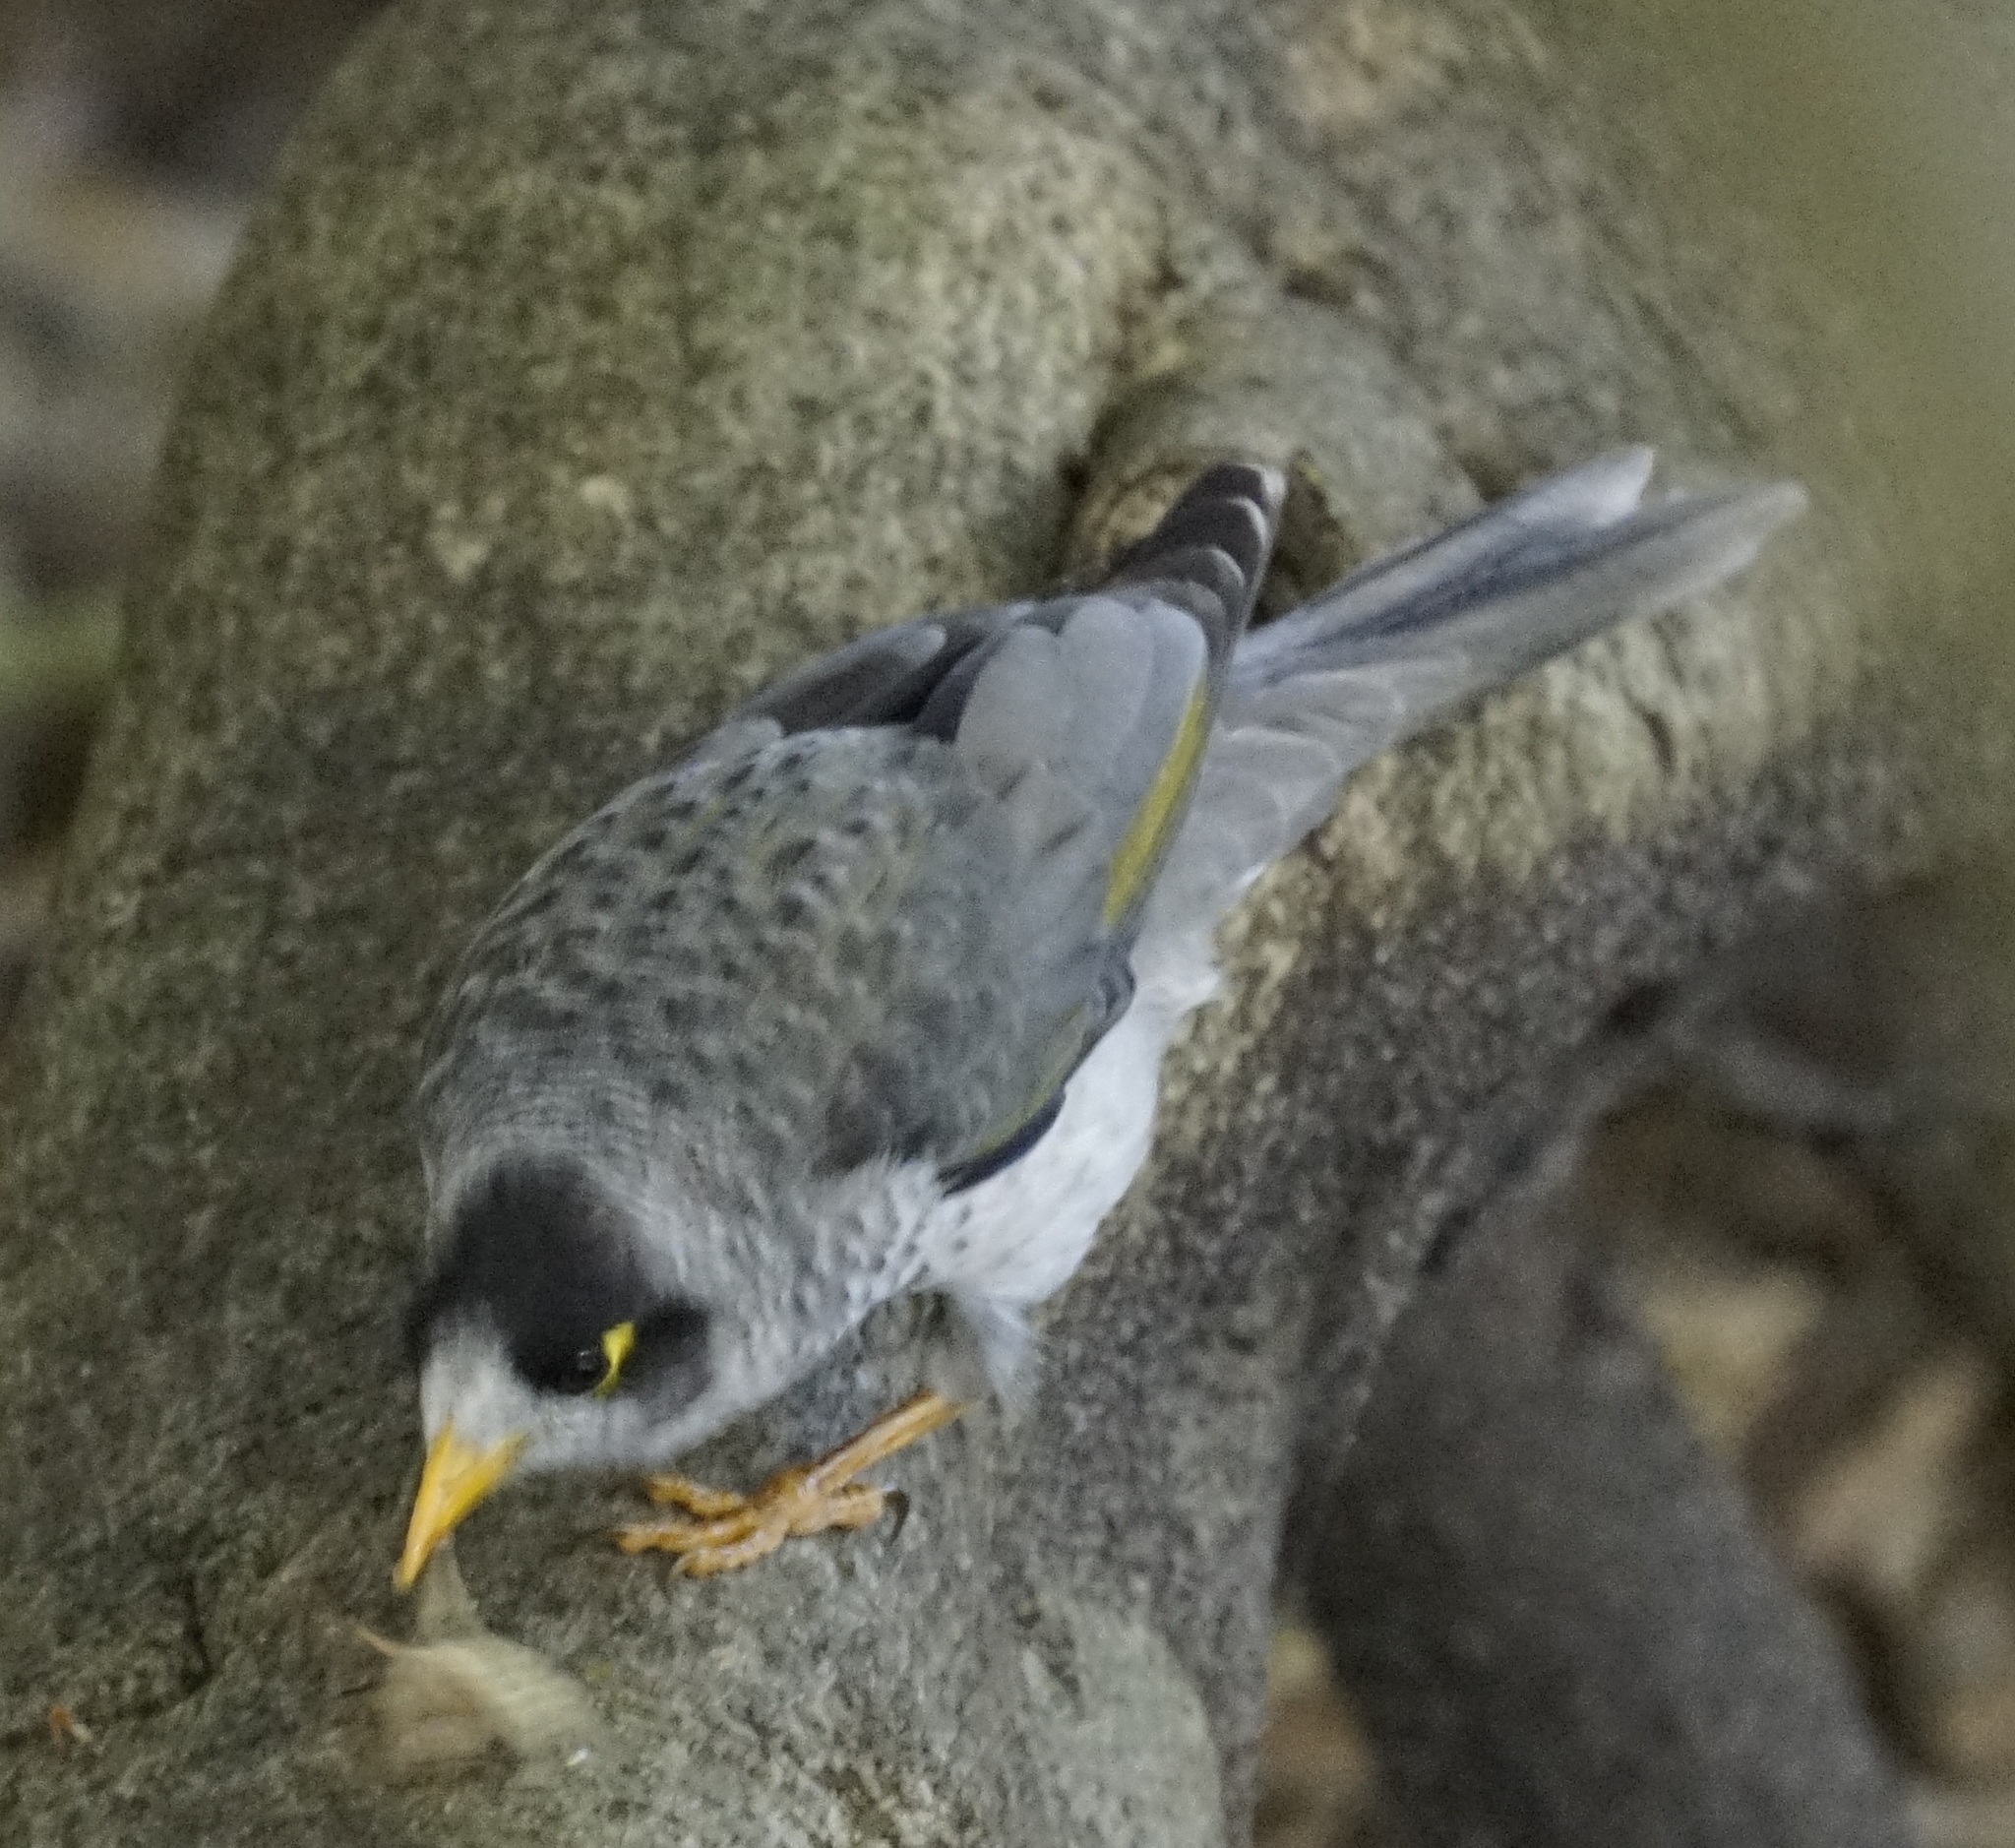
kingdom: Animalia
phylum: Chordata
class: Aves
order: Passeriformes
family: Meliphagidae
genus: Manorina
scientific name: Manorina melanocephala
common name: Noisy miner
